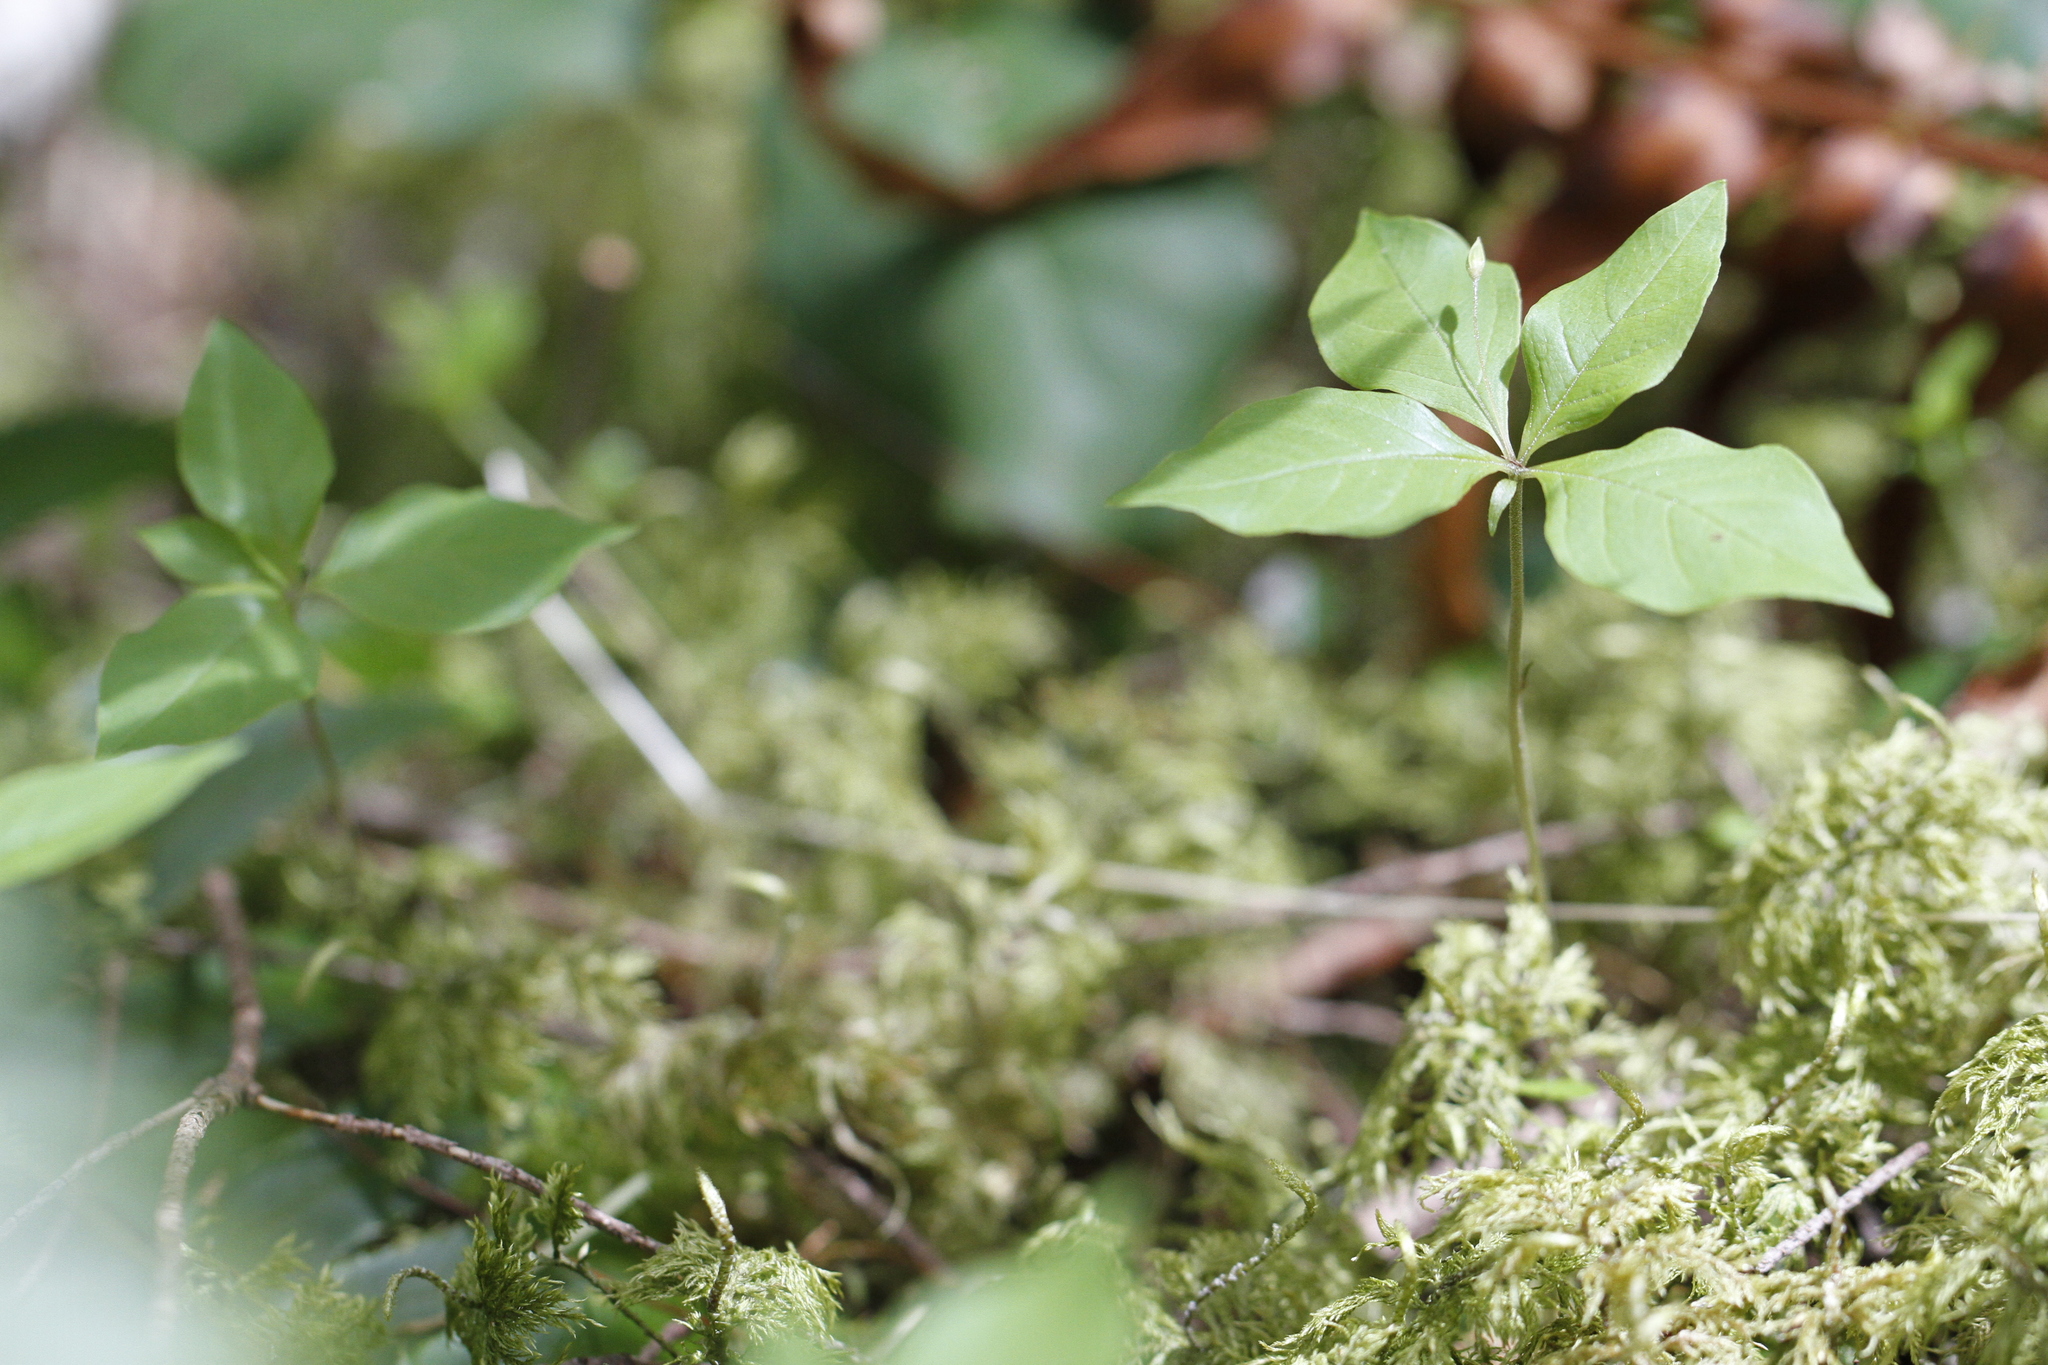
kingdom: Plantae
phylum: Tracheophyta
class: Magnoliopsida
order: Ericales
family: Primulaceae
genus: Lysimachia
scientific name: Lysimachia latifolia
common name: Pacific starflower
